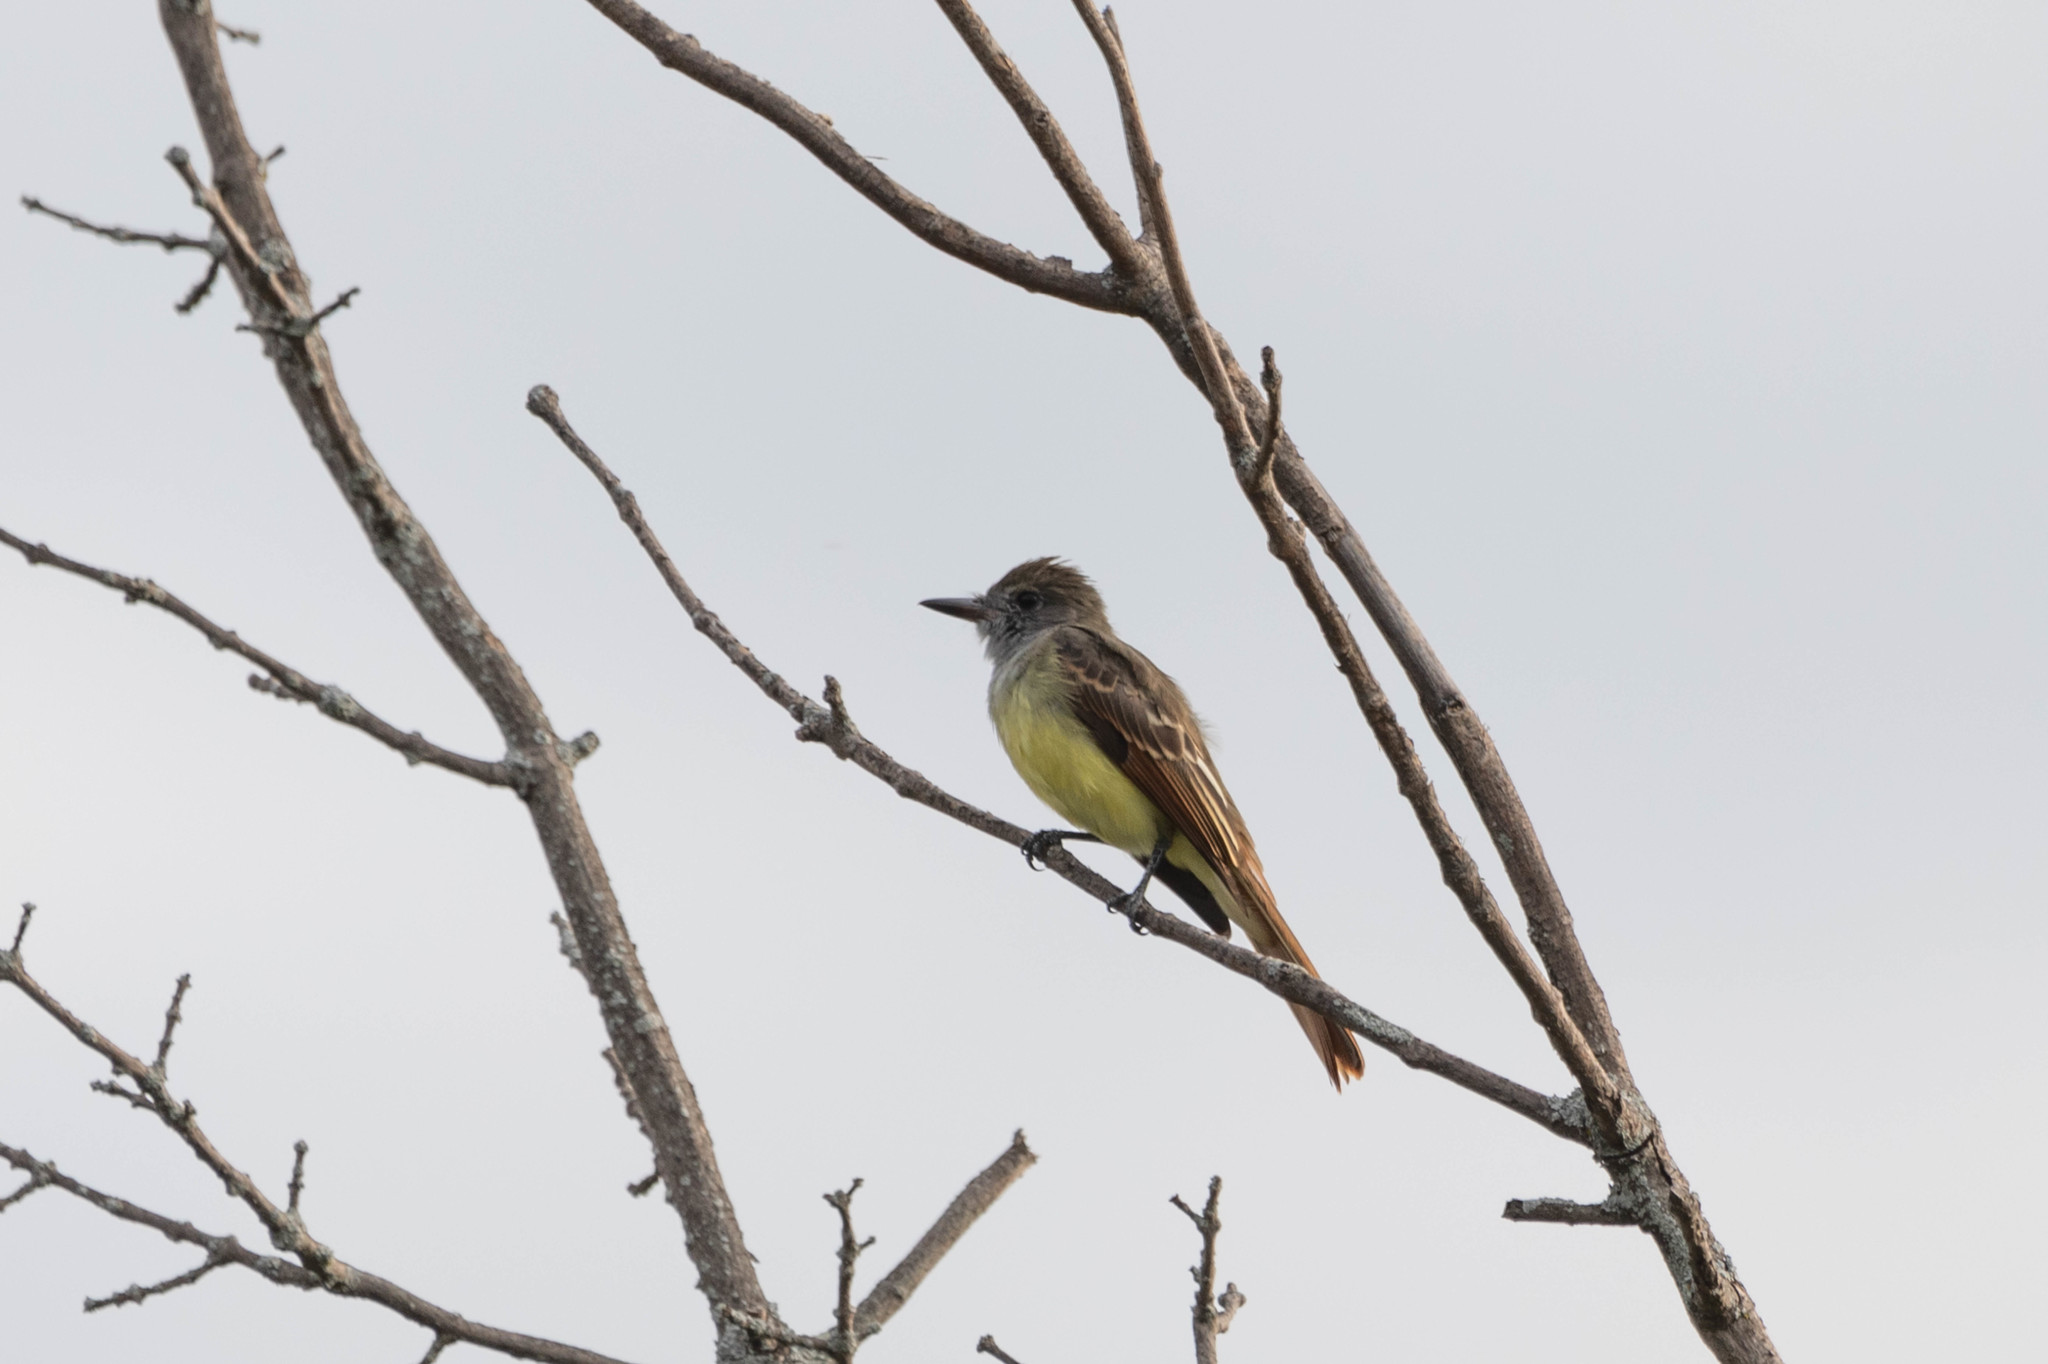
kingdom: Animalia
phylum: Chordata
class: Aves
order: Passeriformes
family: Tyrannidae
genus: Myiarchus
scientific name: Myiarchus crinitus
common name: Great crested flycatcher
